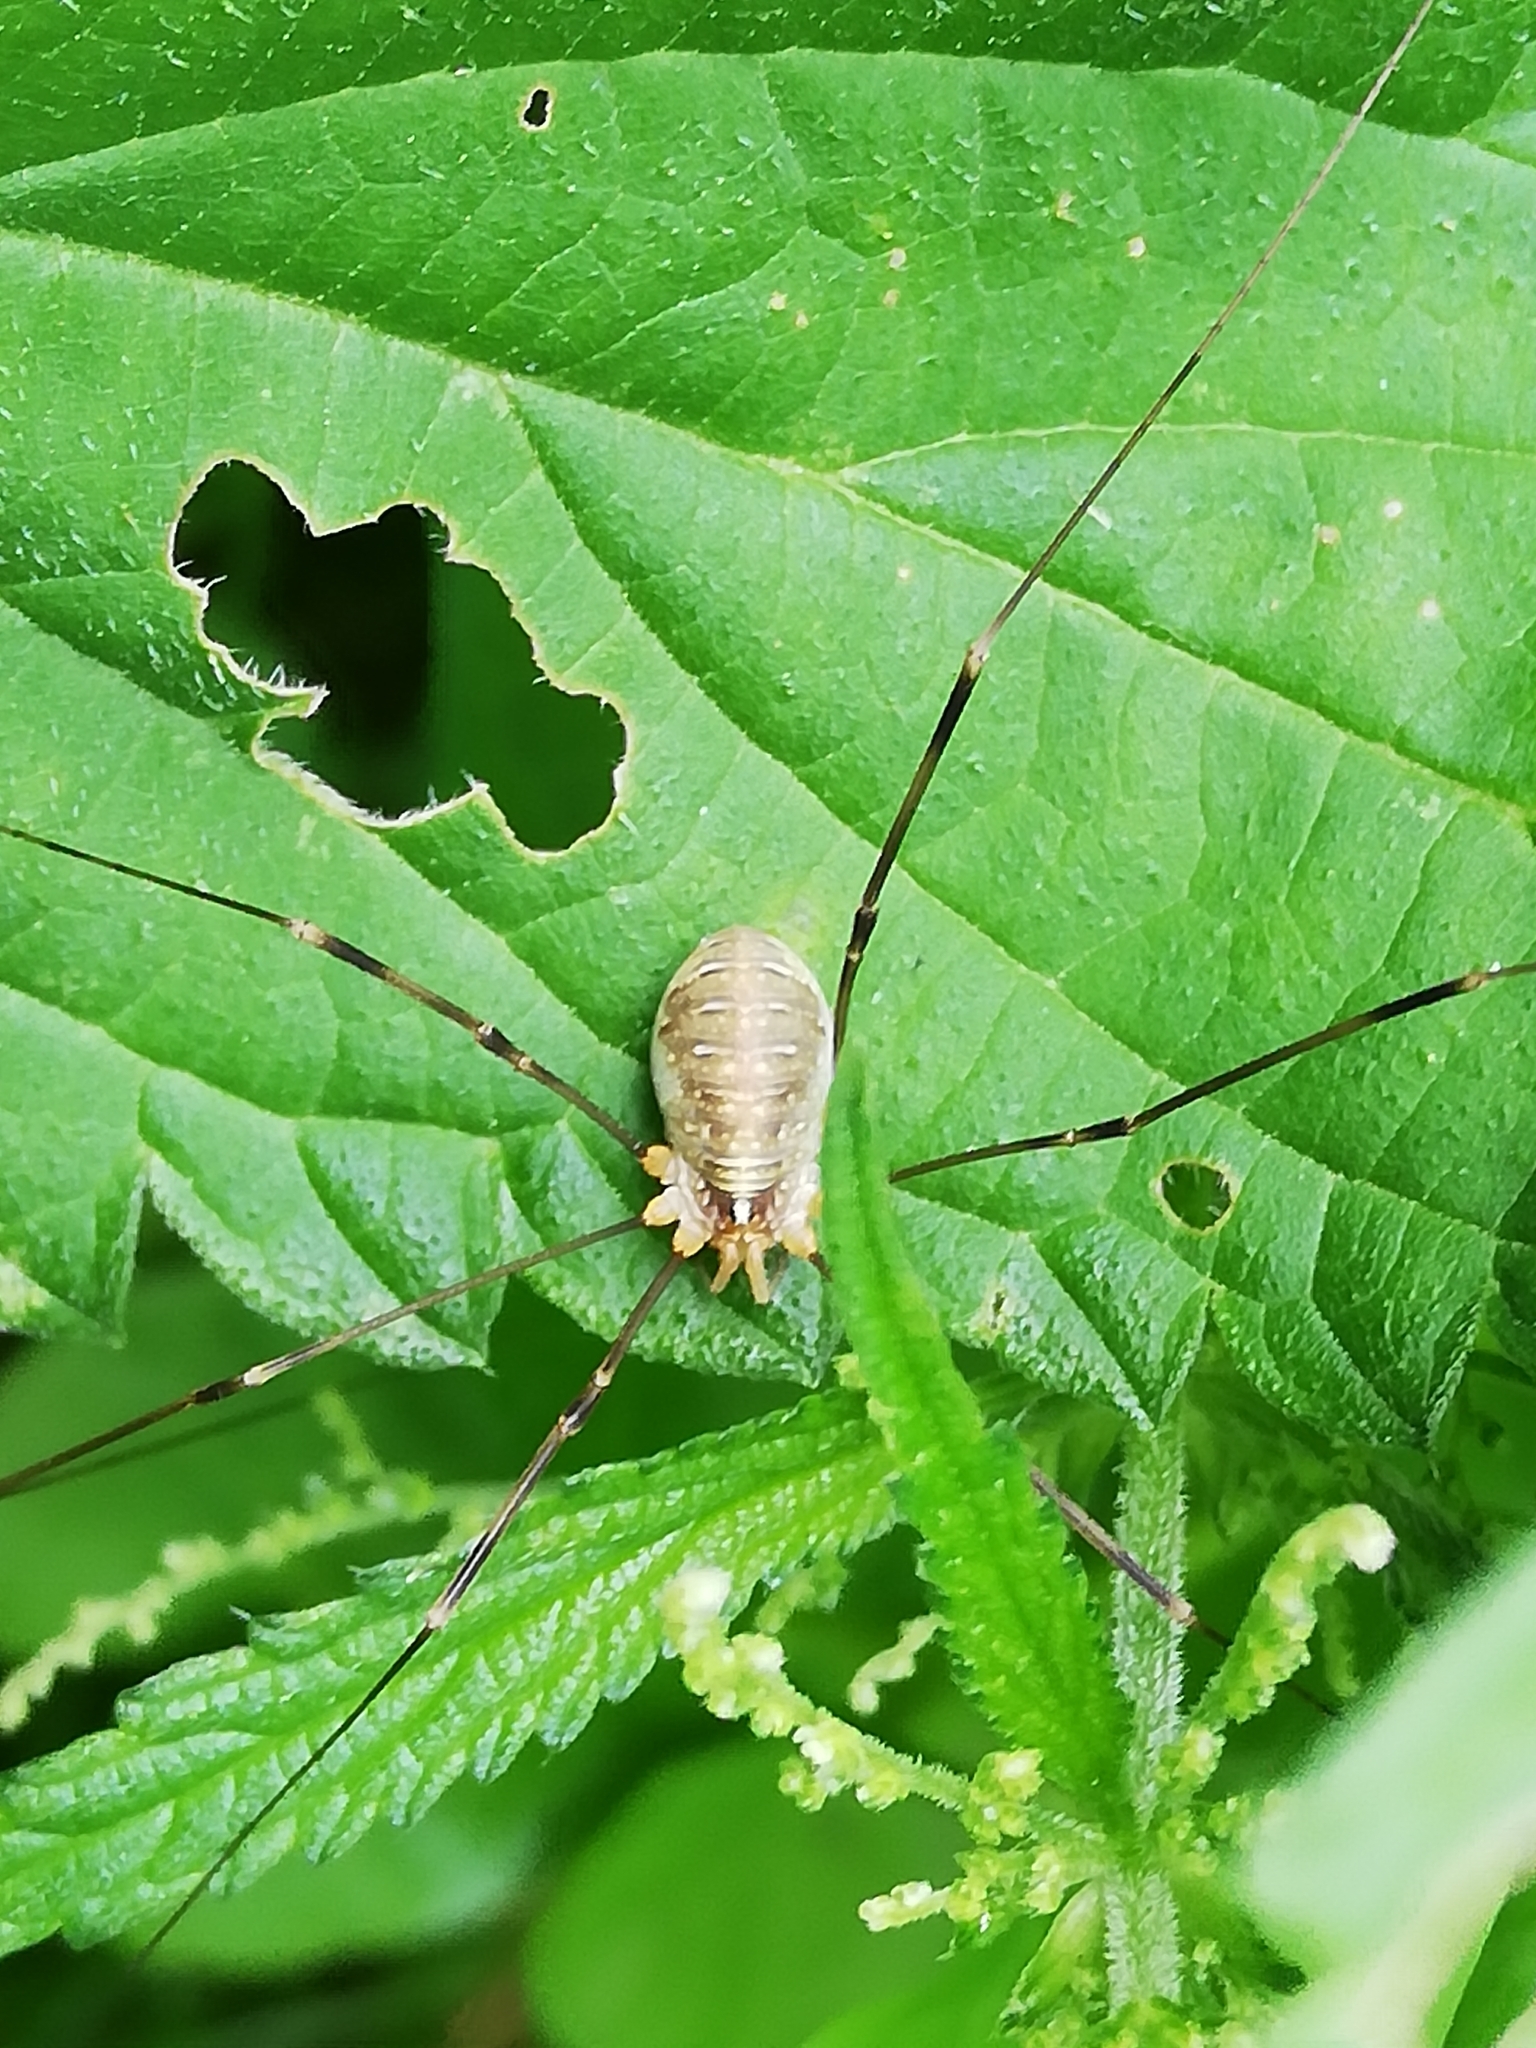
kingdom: Animalia
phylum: Arthropoda
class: Arachnida
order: Opiliones
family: Phalangiidae
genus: Opilio
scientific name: Opilio canestrinii
